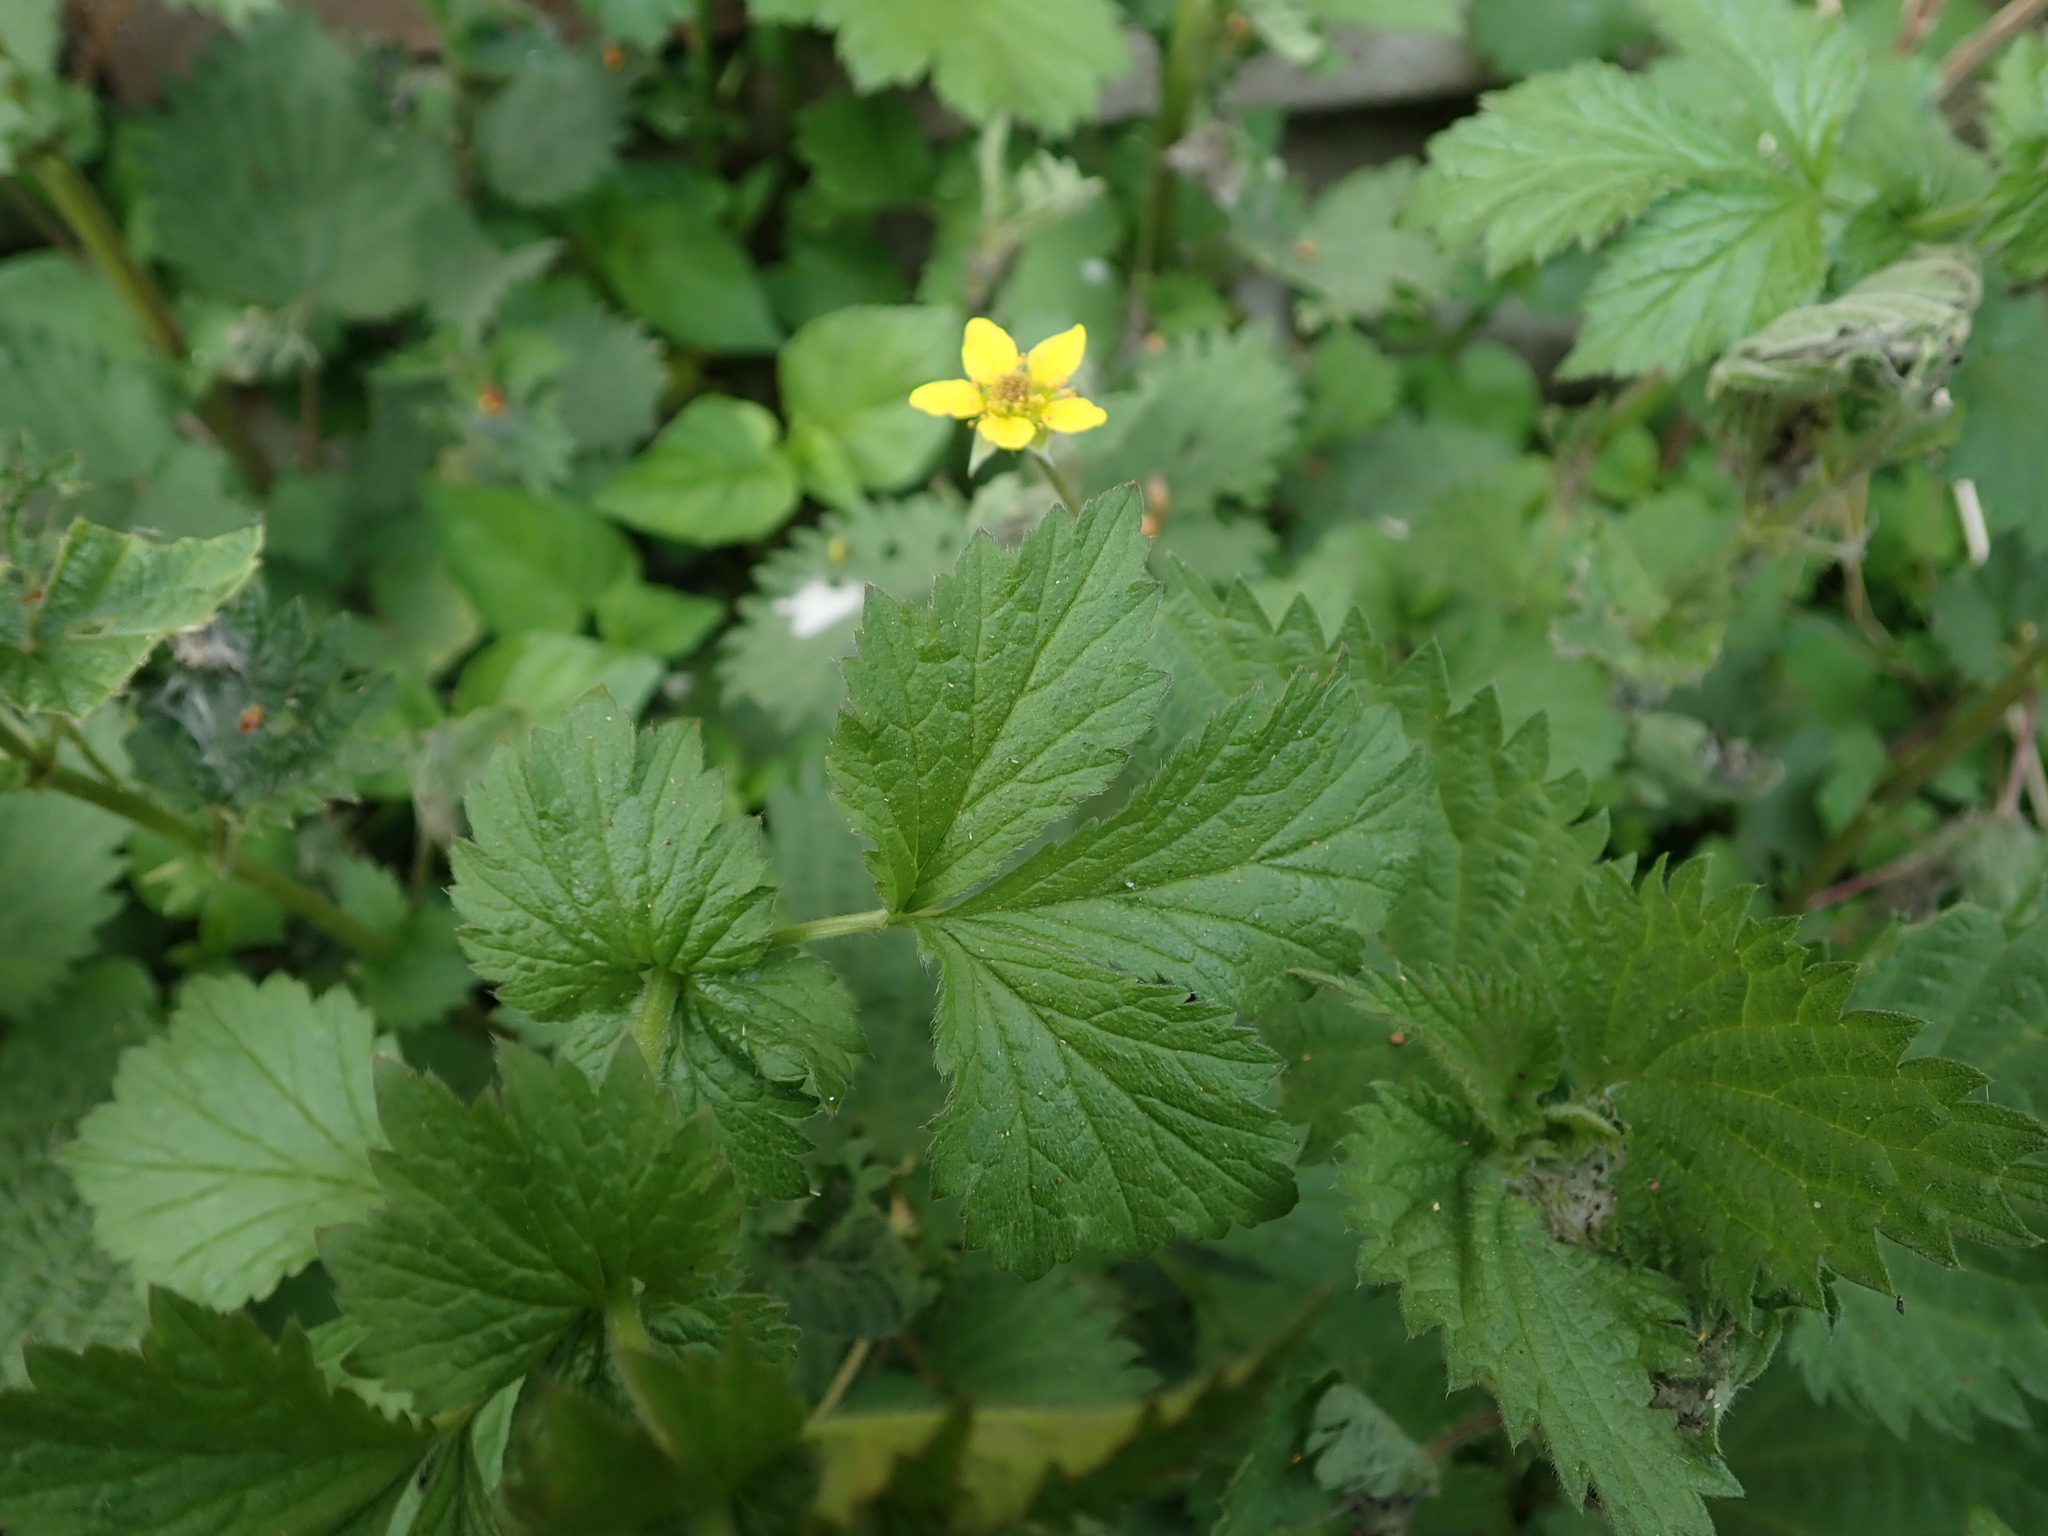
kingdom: Plantae
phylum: Tracheophyta
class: Magnoliopsida
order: Rosales
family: Rosaceae
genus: Geum
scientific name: Geum urbanum
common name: Wood avens
